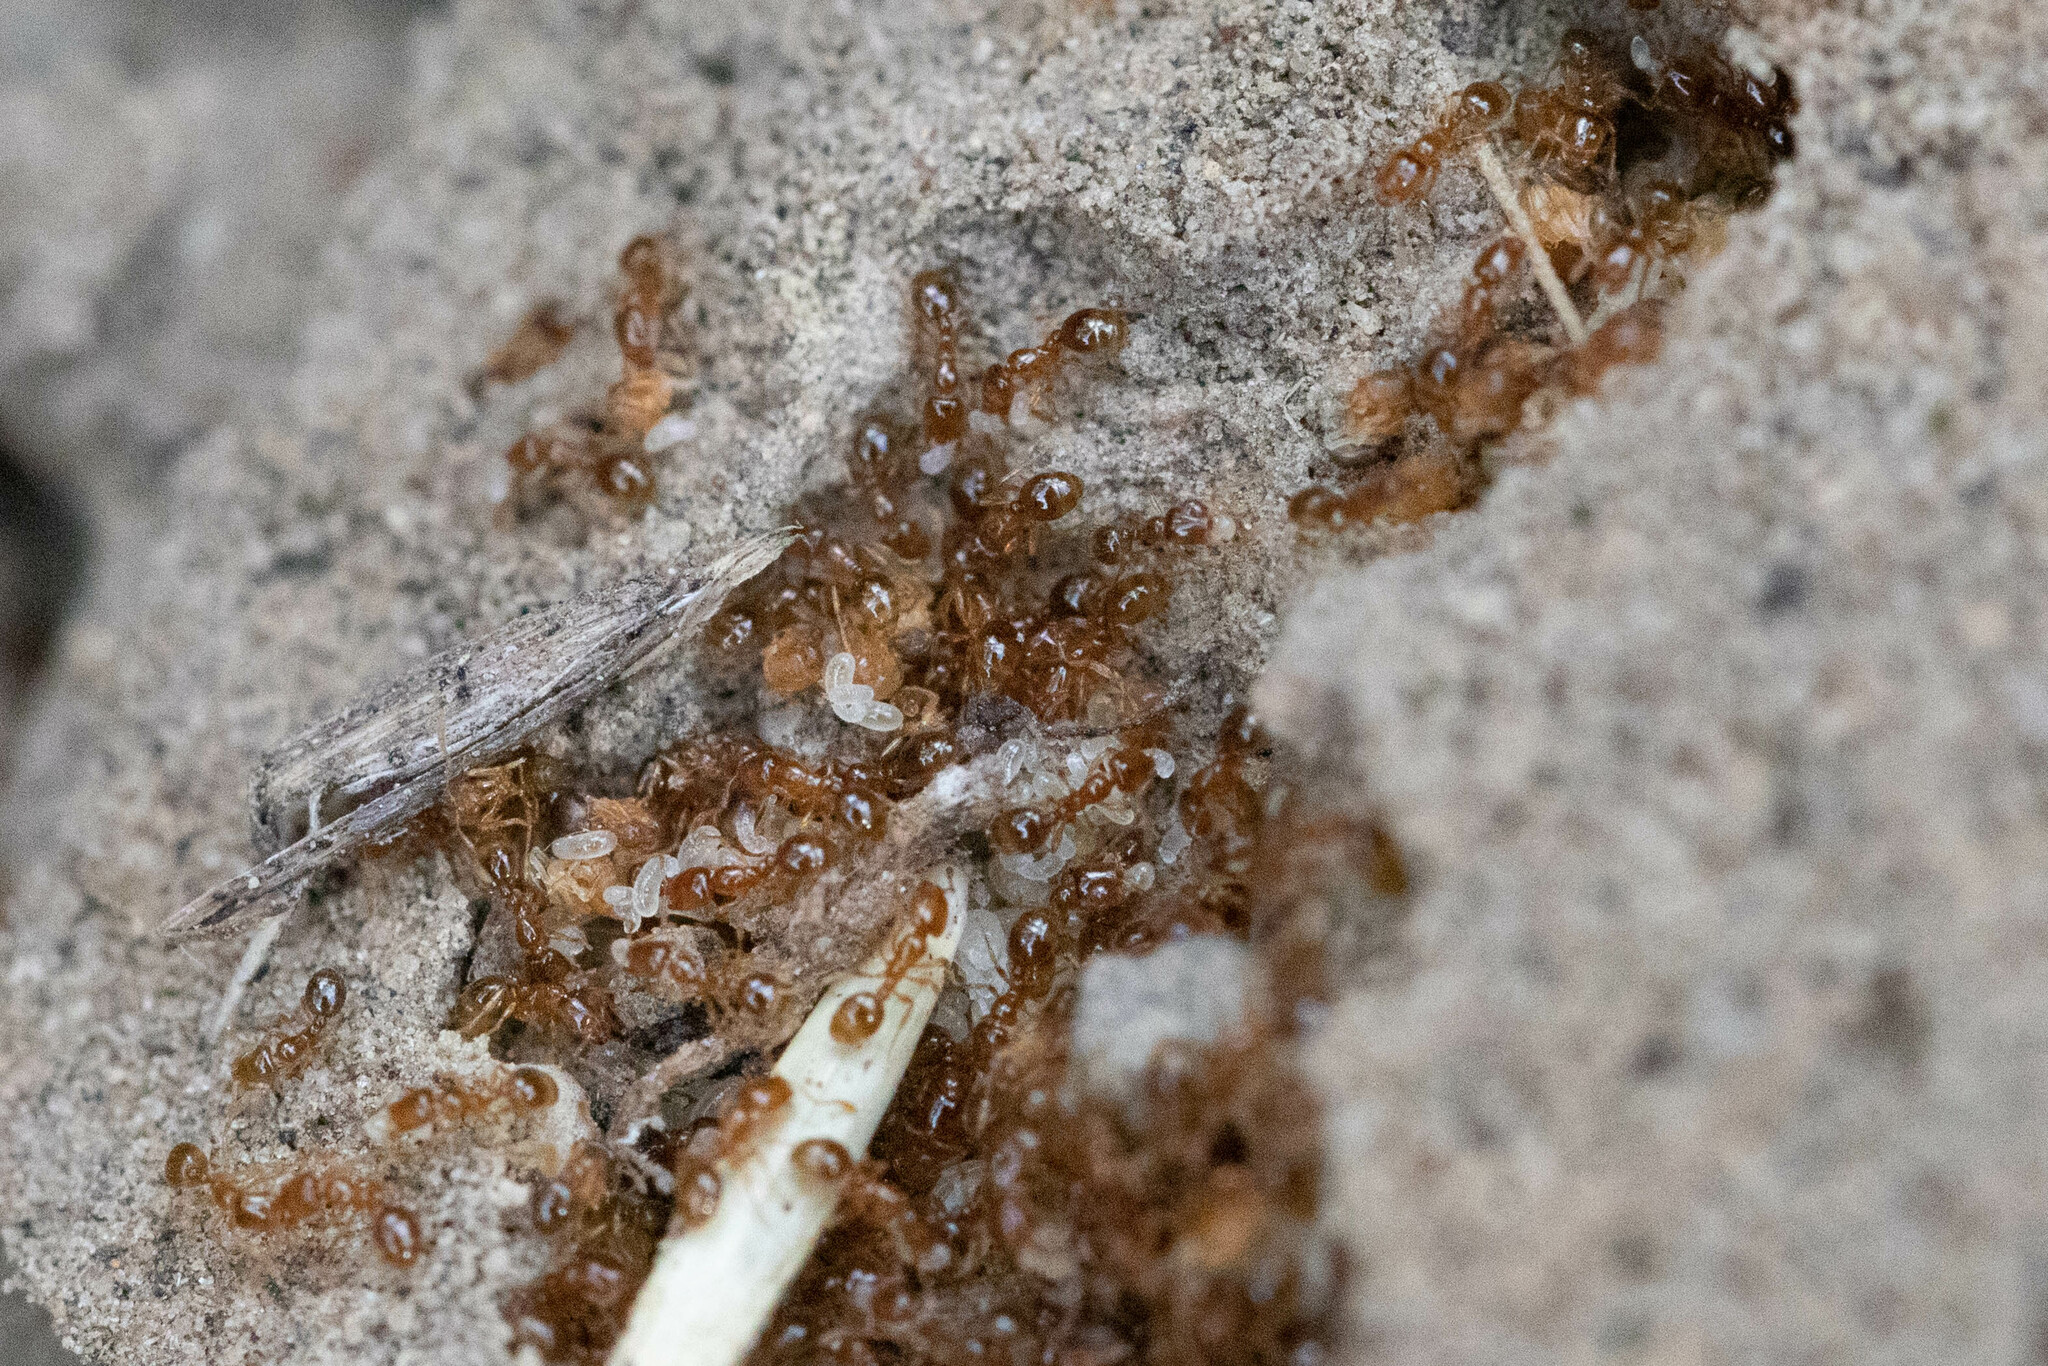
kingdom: Animalia
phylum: Arthropoda
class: Insecta
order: Hymenoptera
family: Formicidae
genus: Solenopsis
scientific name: Solenopsis molesta
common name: Thief ant
